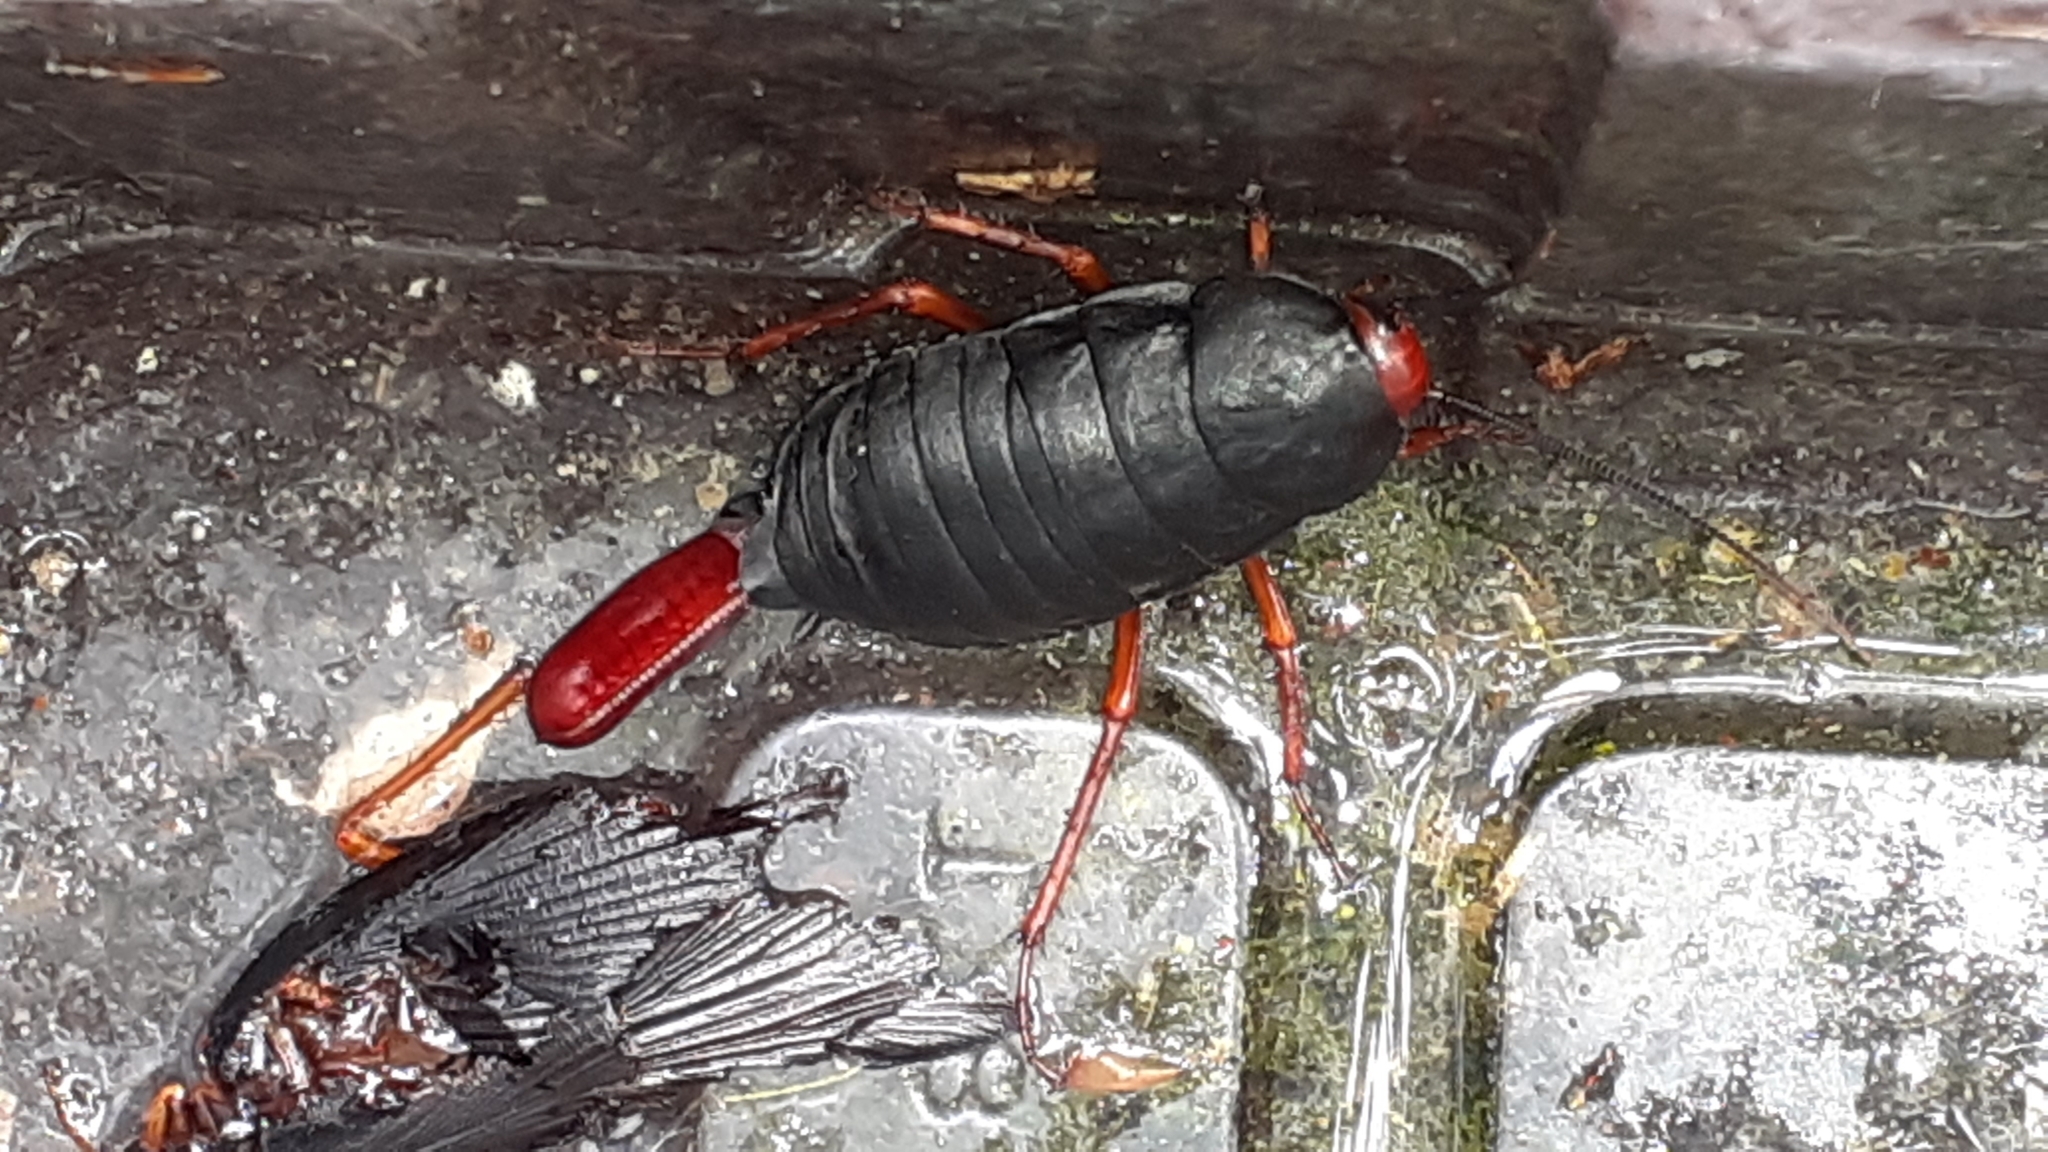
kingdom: Animalia
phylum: Arthropoda
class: Insecta
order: Blattodea
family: Blattidae
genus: Deropeltis
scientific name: Deropeltis erythrocephala
